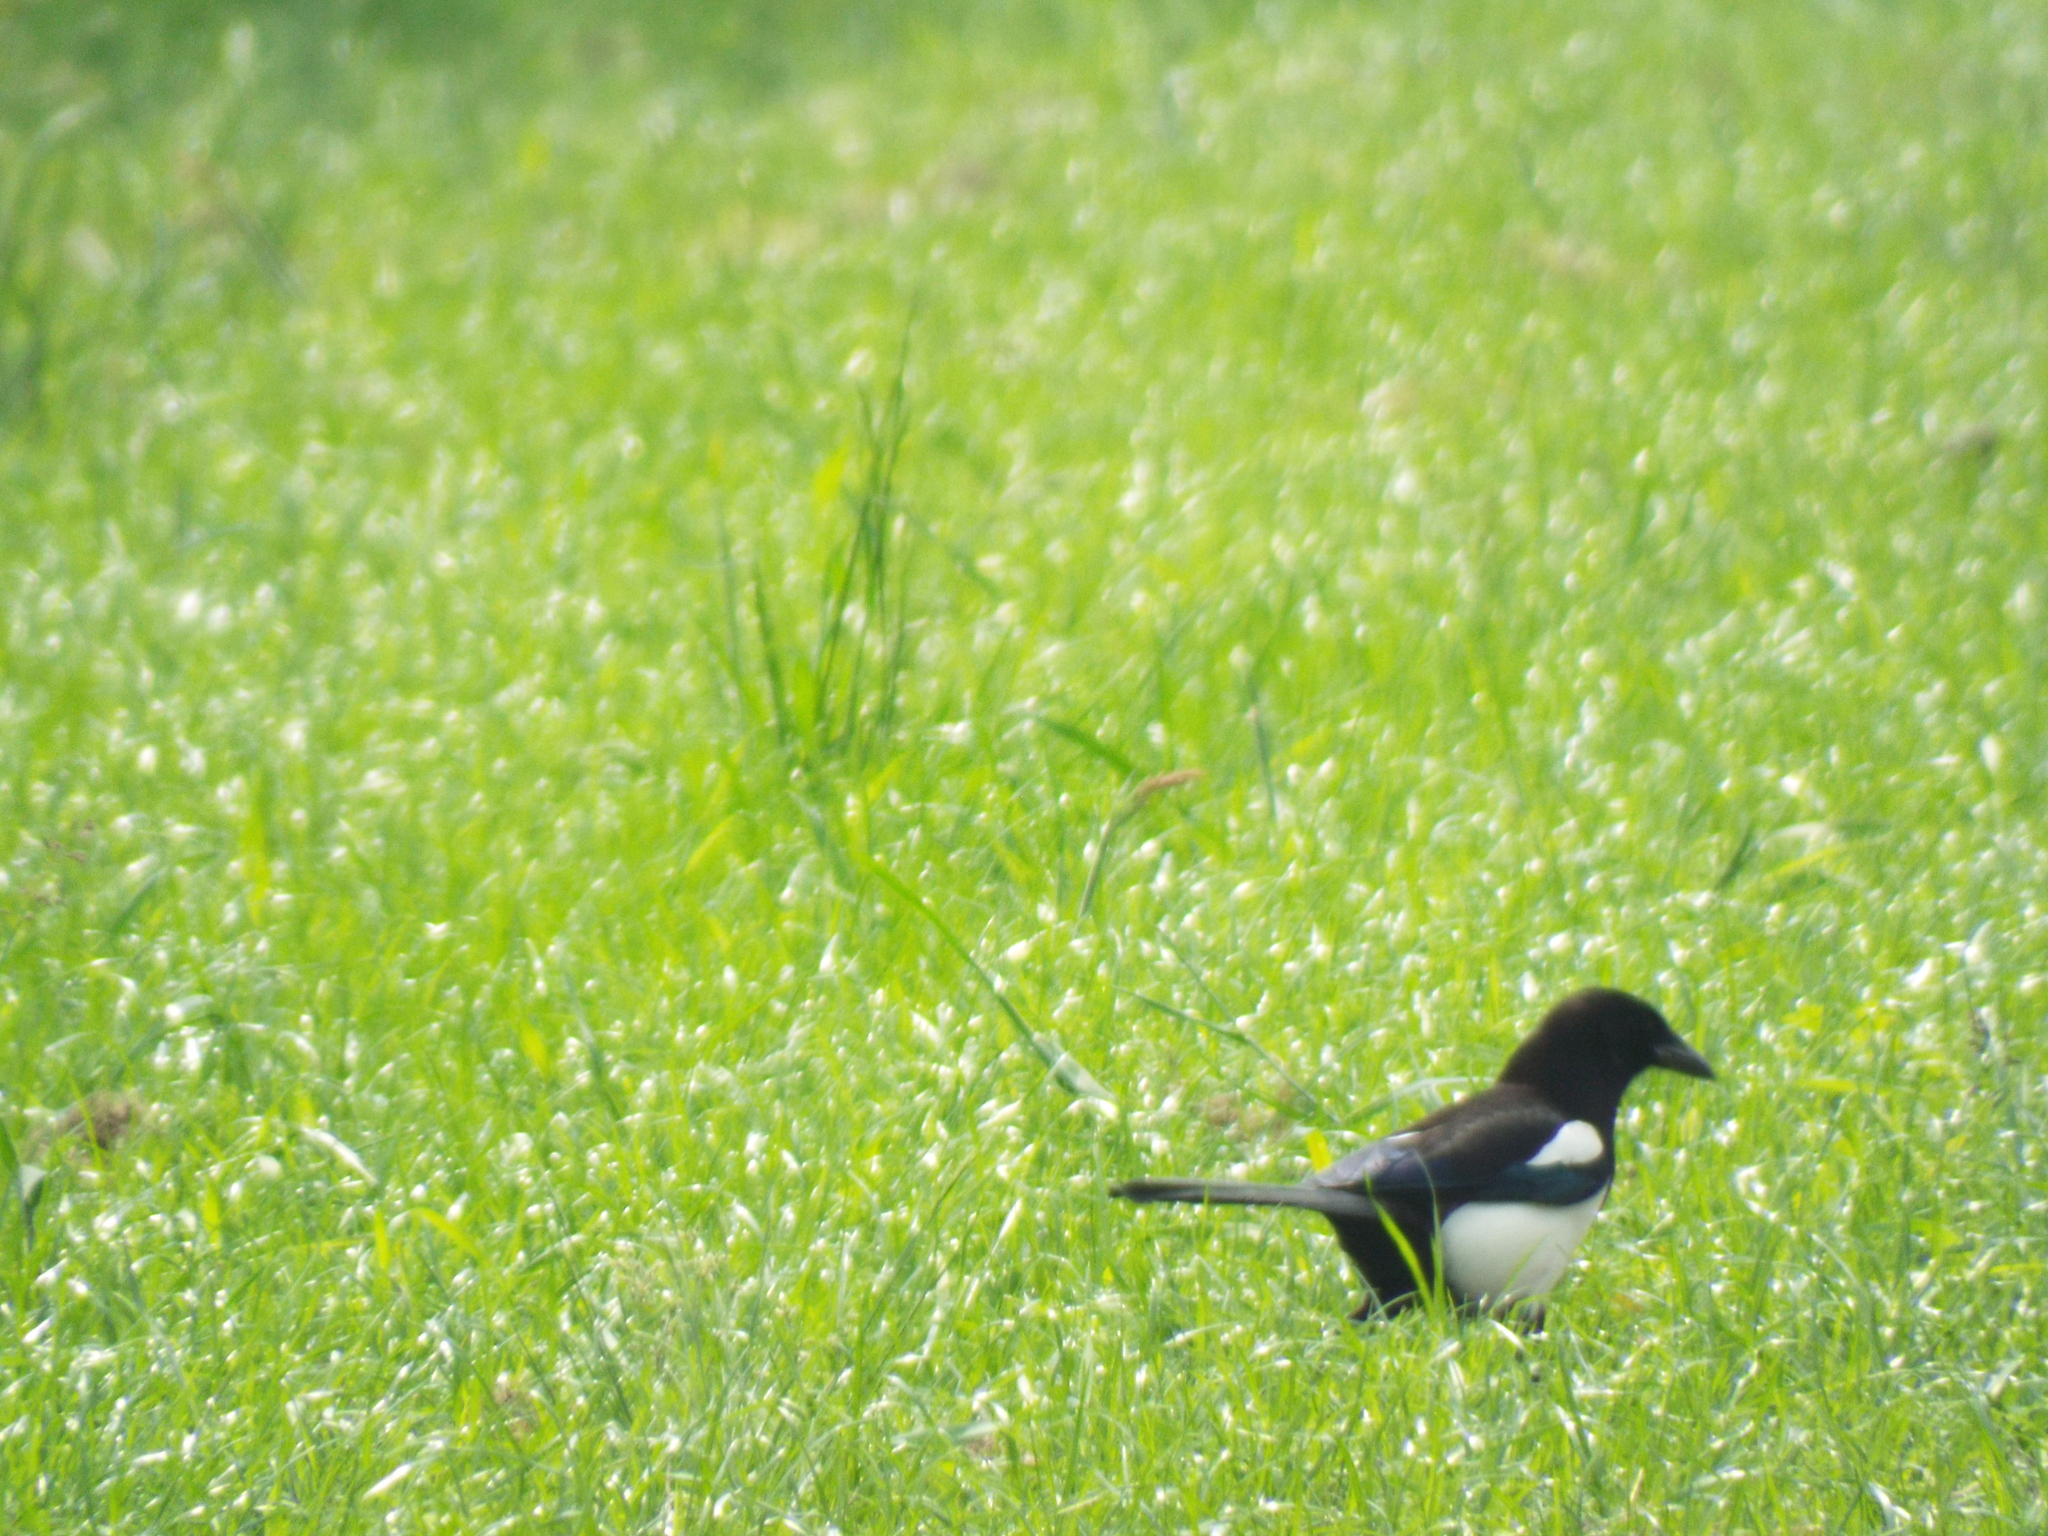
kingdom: Animalia
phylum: Chordata
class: Aves
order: Passeriformes
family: Corvidae
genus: Pica
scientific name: Pica pica
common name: Eurasian magpie
